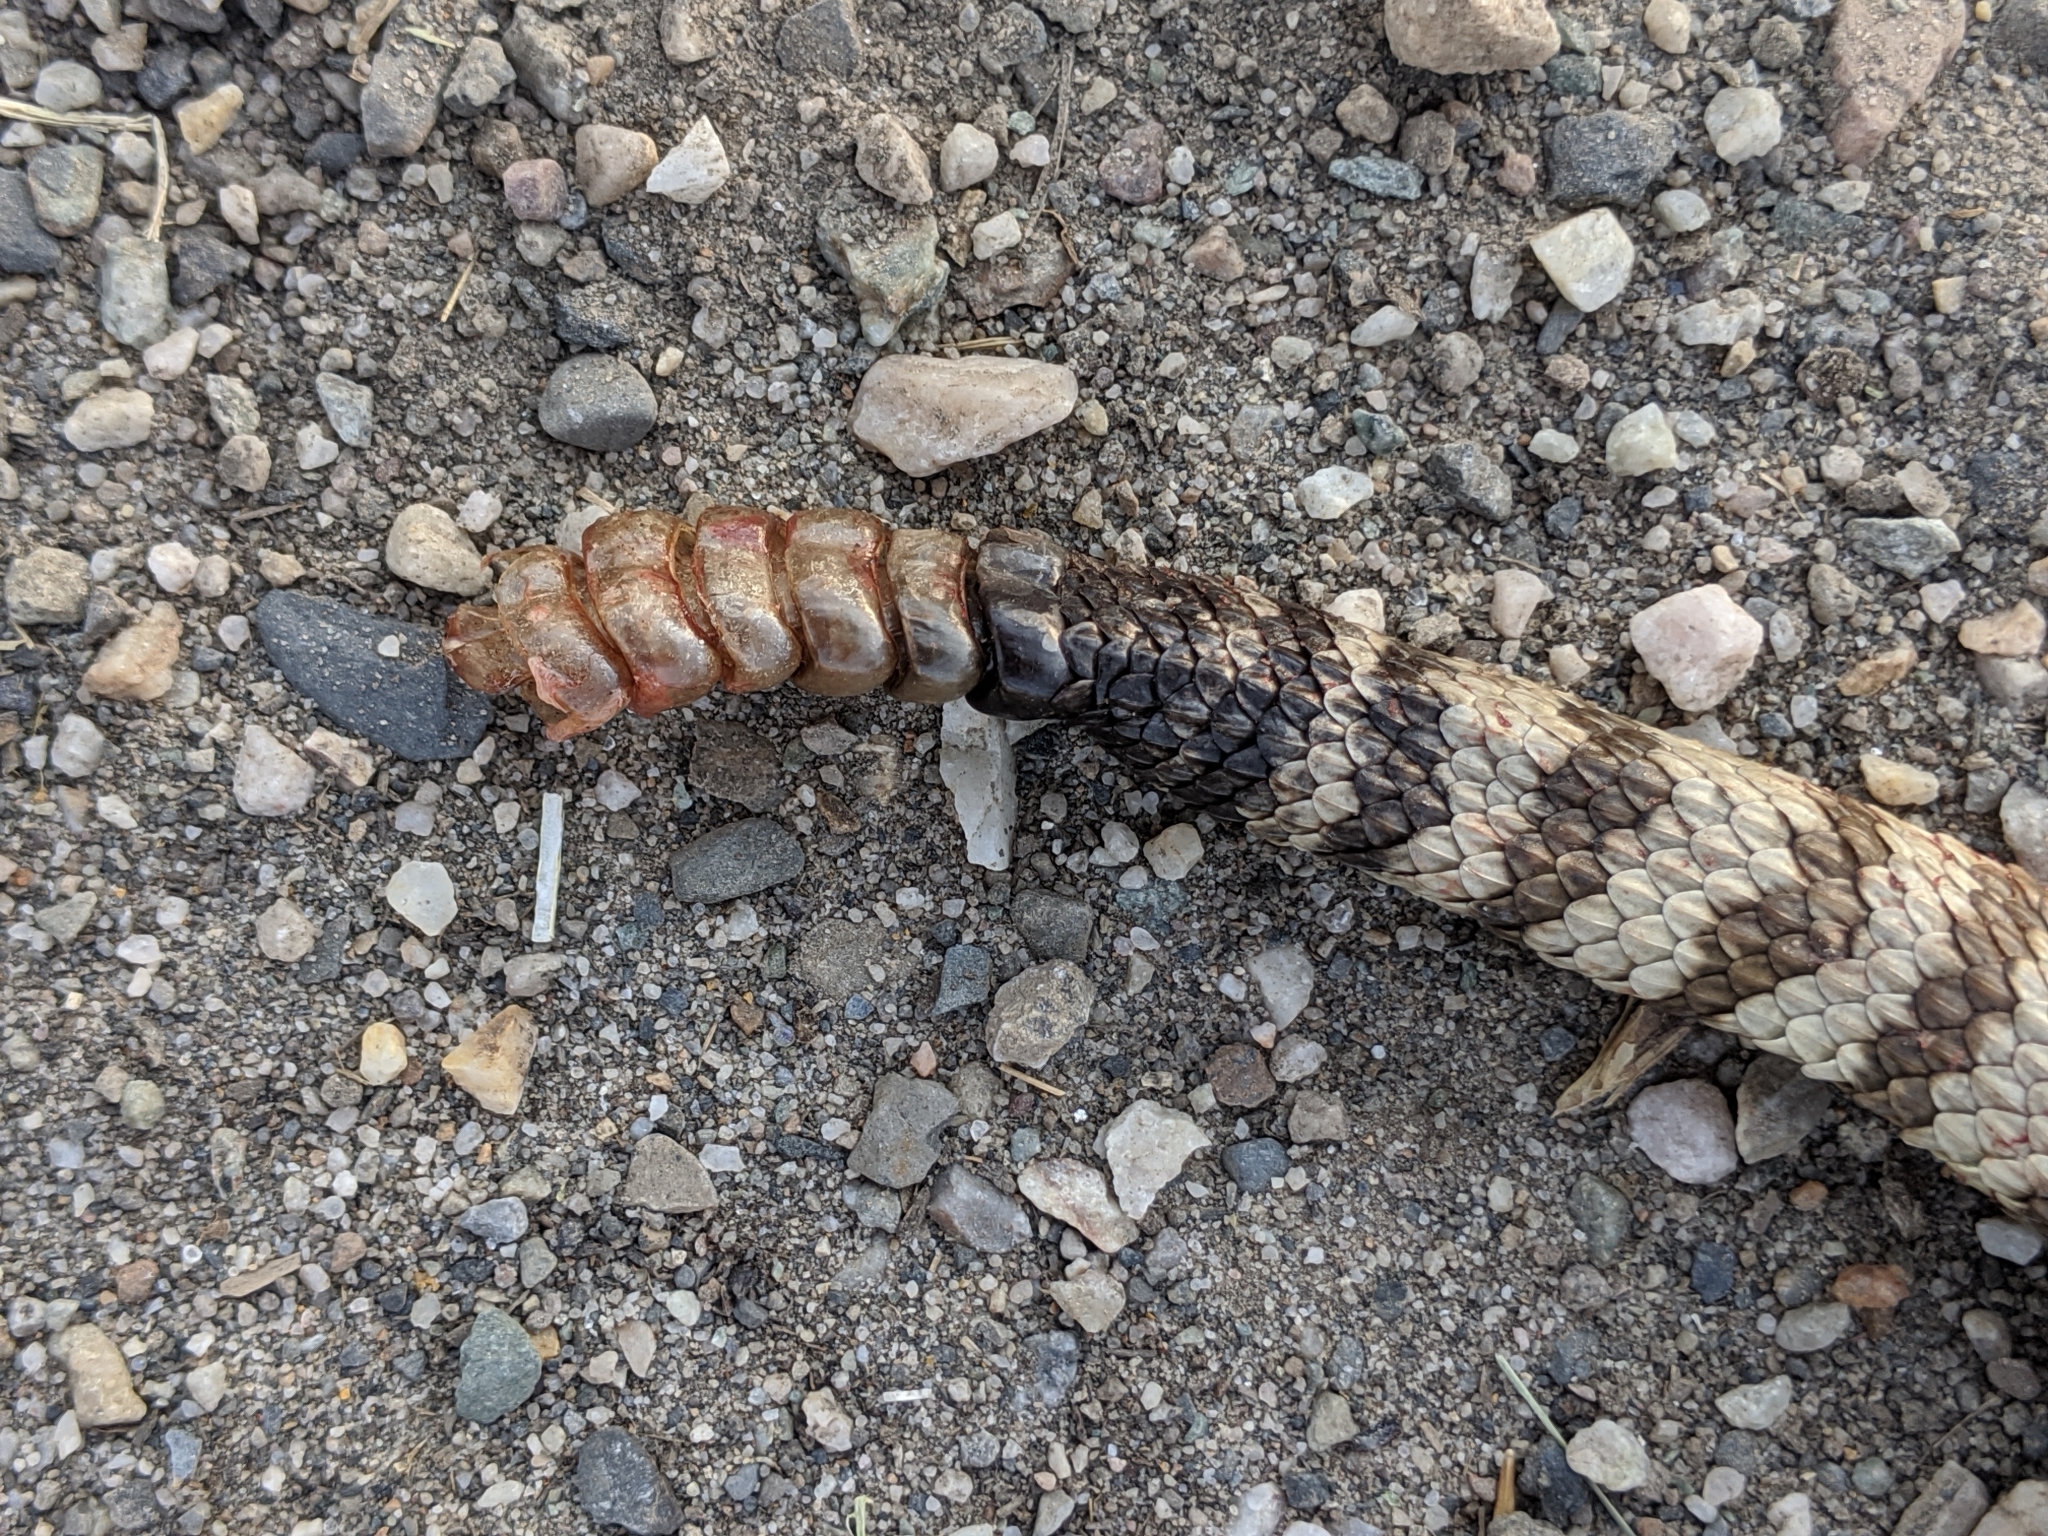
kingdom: Animalia
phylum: Chordata
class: Squamata
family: Viperidae
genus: Crotalus
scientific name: Crotalus oreganus
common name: Abyssus
